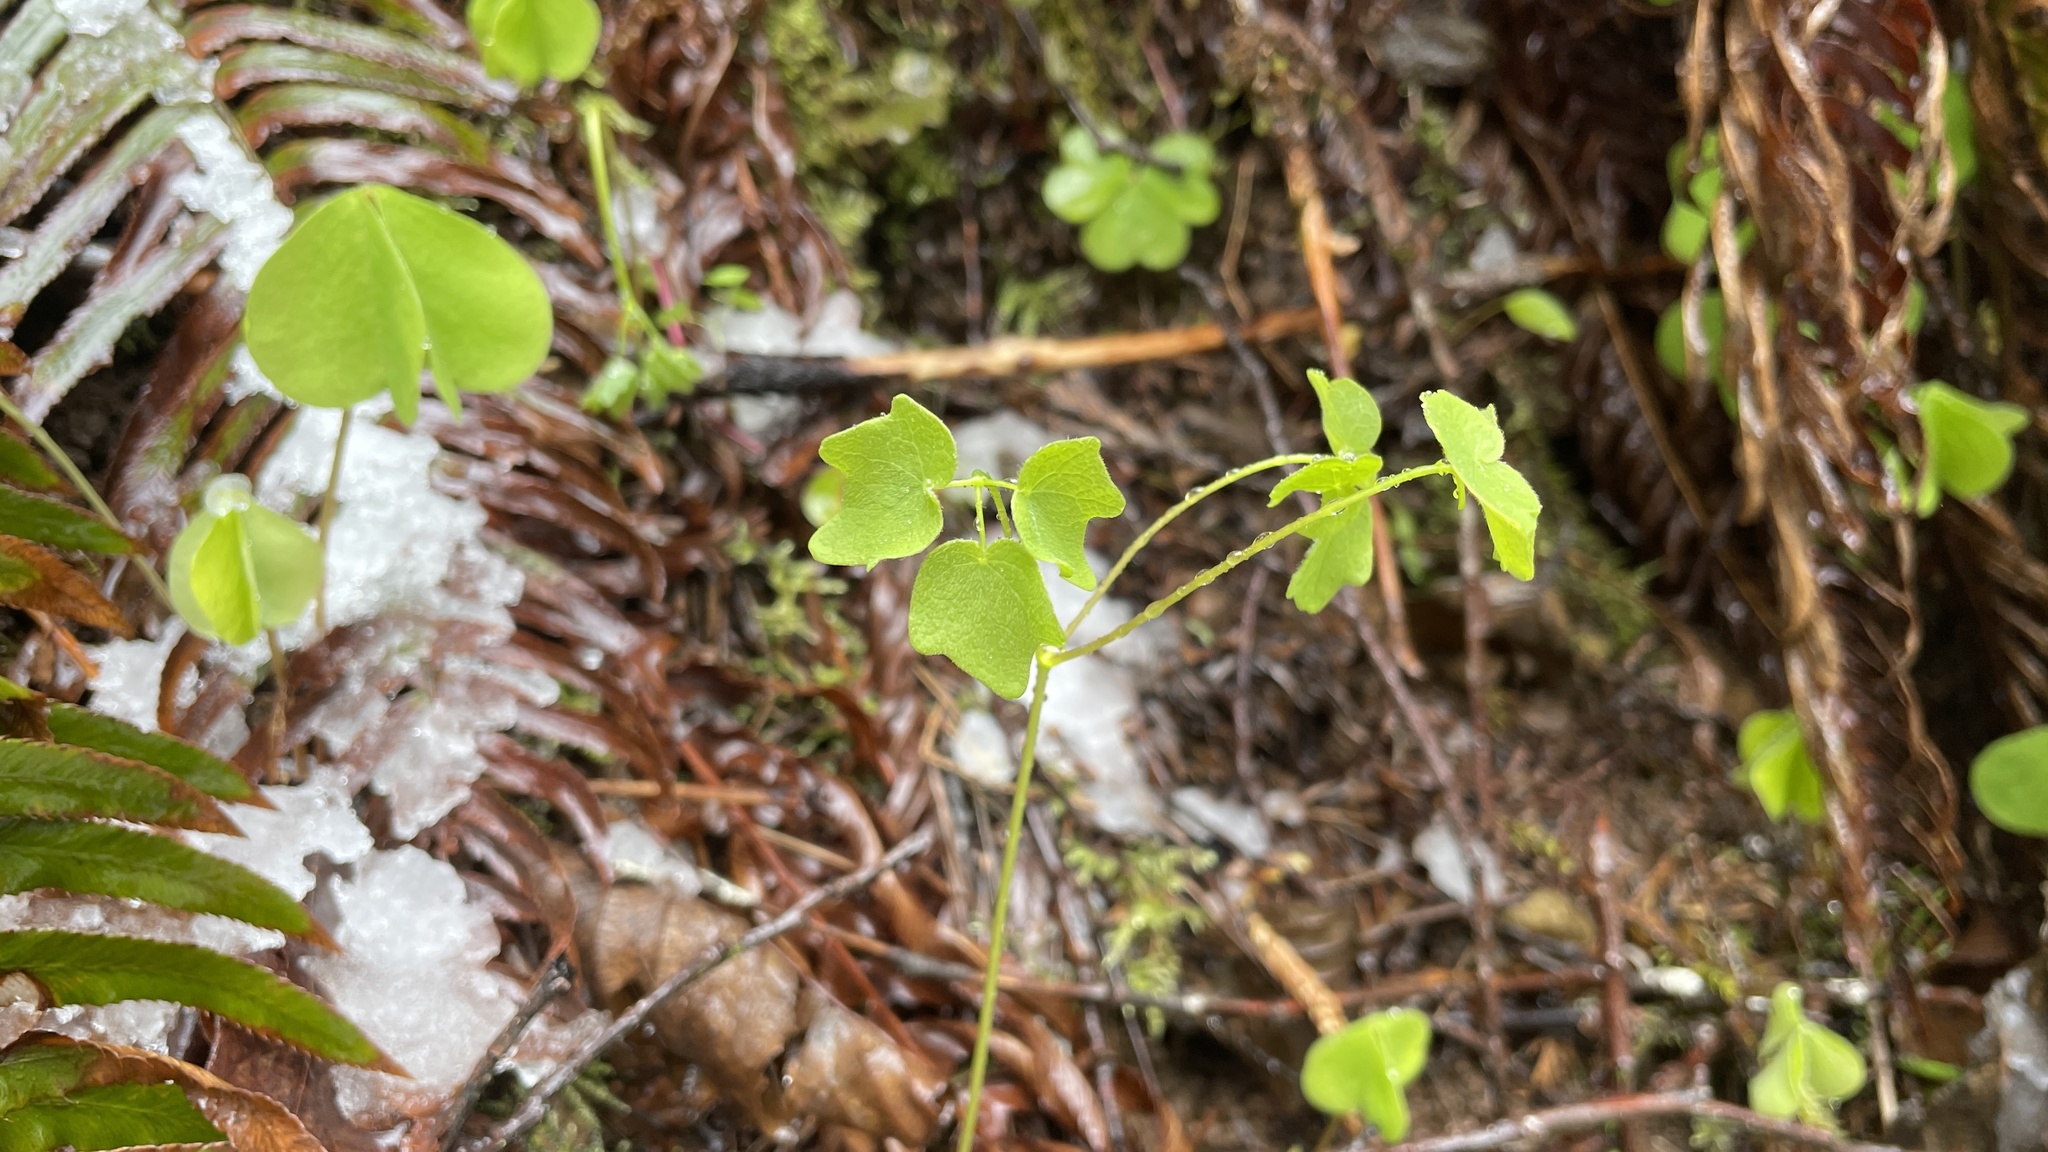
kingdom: Plantae
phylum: Tracheophyta
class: Magnoliopsida
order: Ranunculales
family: Berberidaceae
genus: Vancouveria
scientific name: Vancouveria hexandra
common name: Northern inside-out-flower
